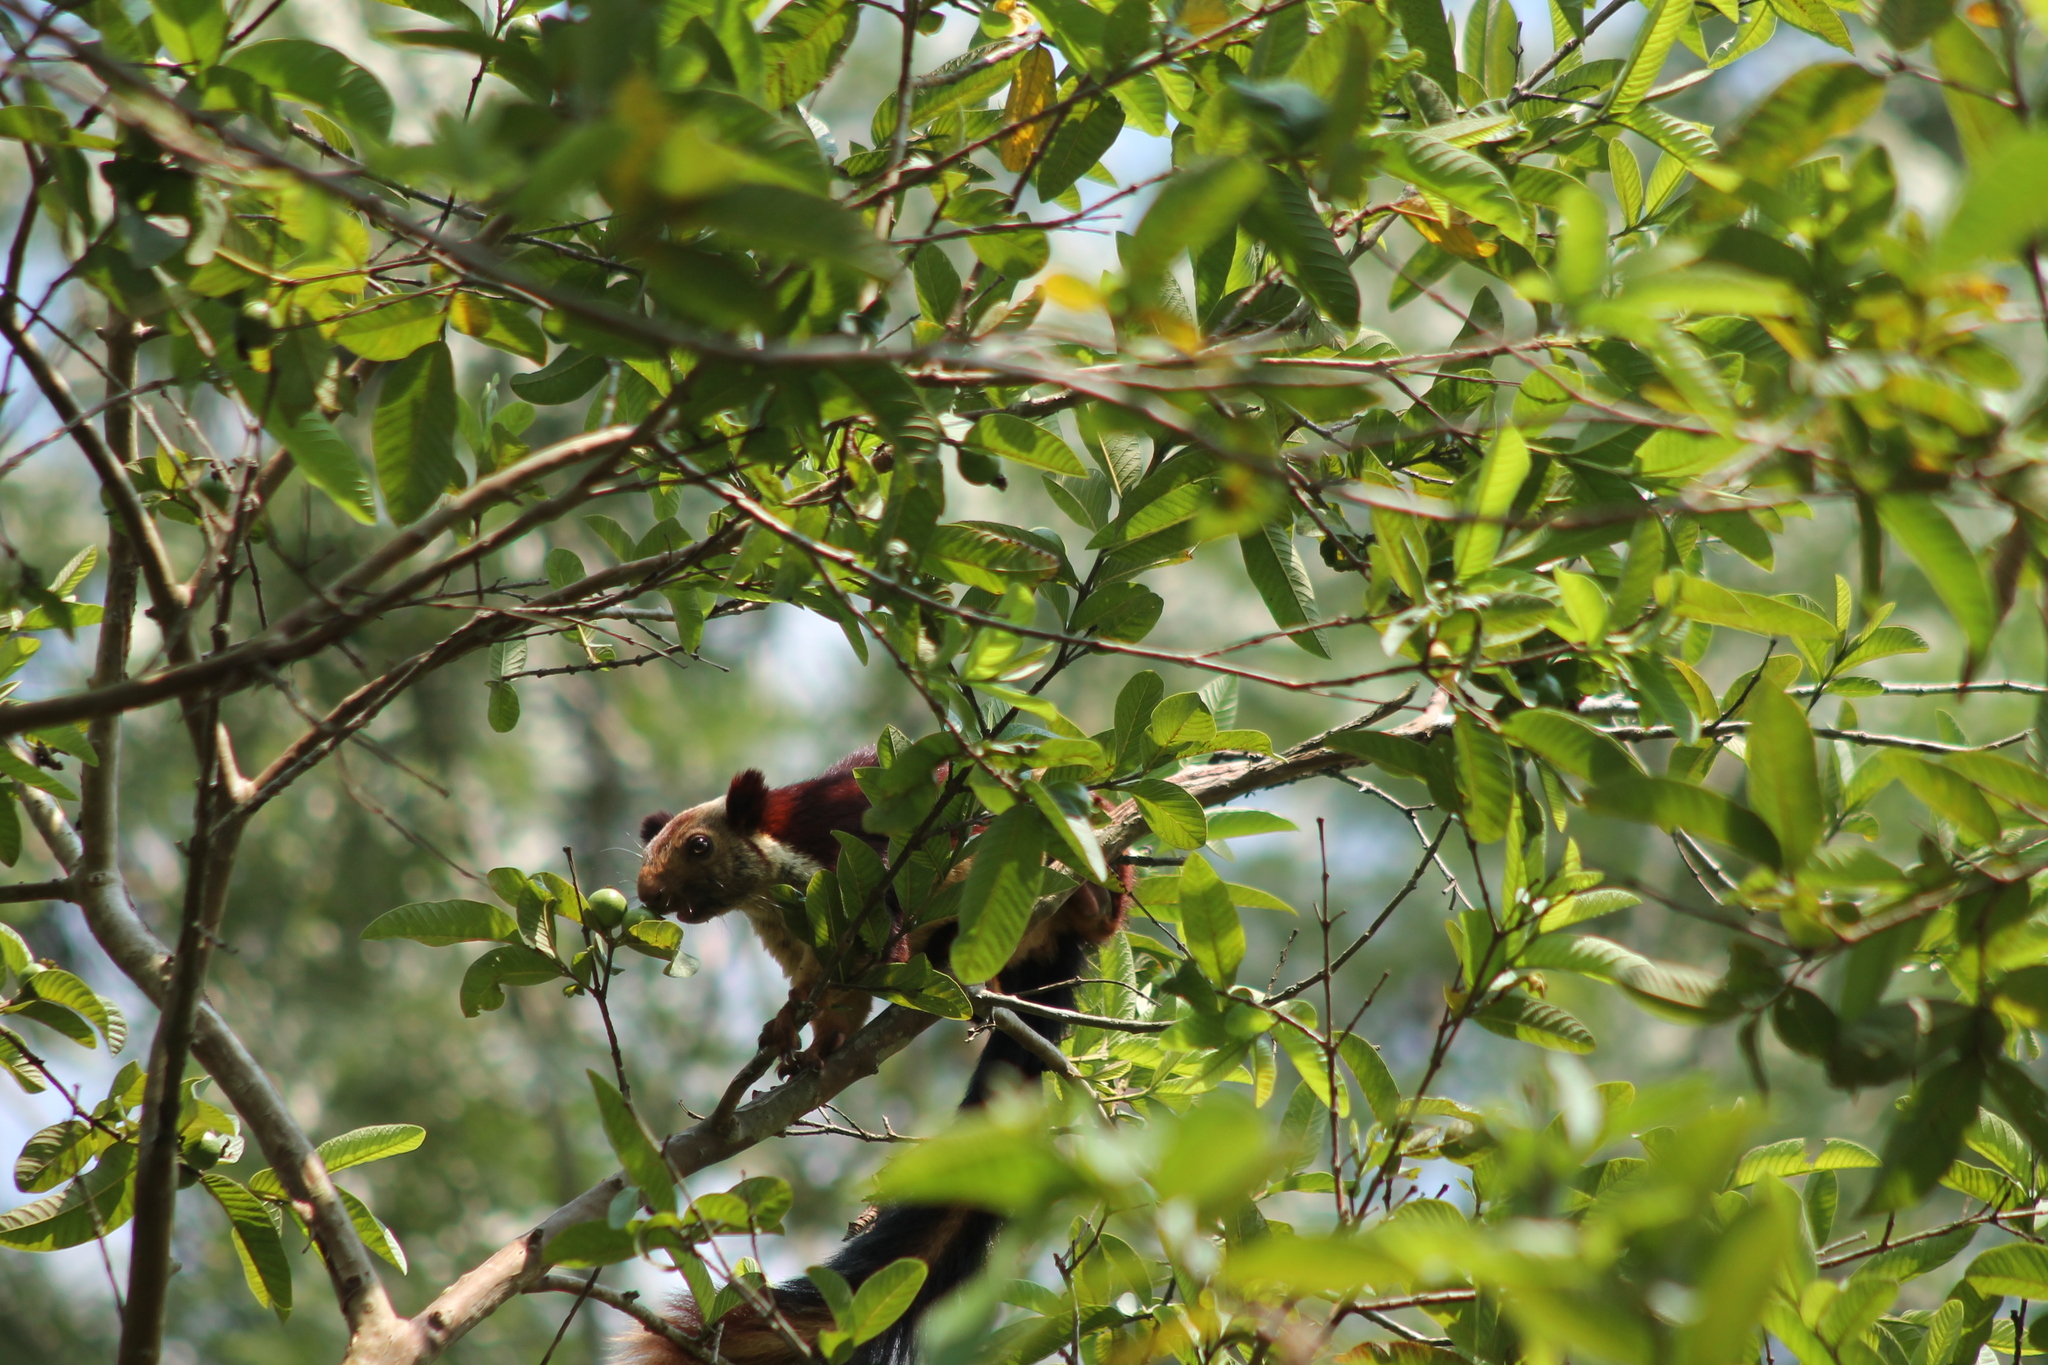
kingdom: Animalia
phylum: Chordata
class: Mammalia
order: Rodentia
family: Sciuridae
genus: Ratufa
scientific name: Ratufa indica
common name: Indian giant squirrel
